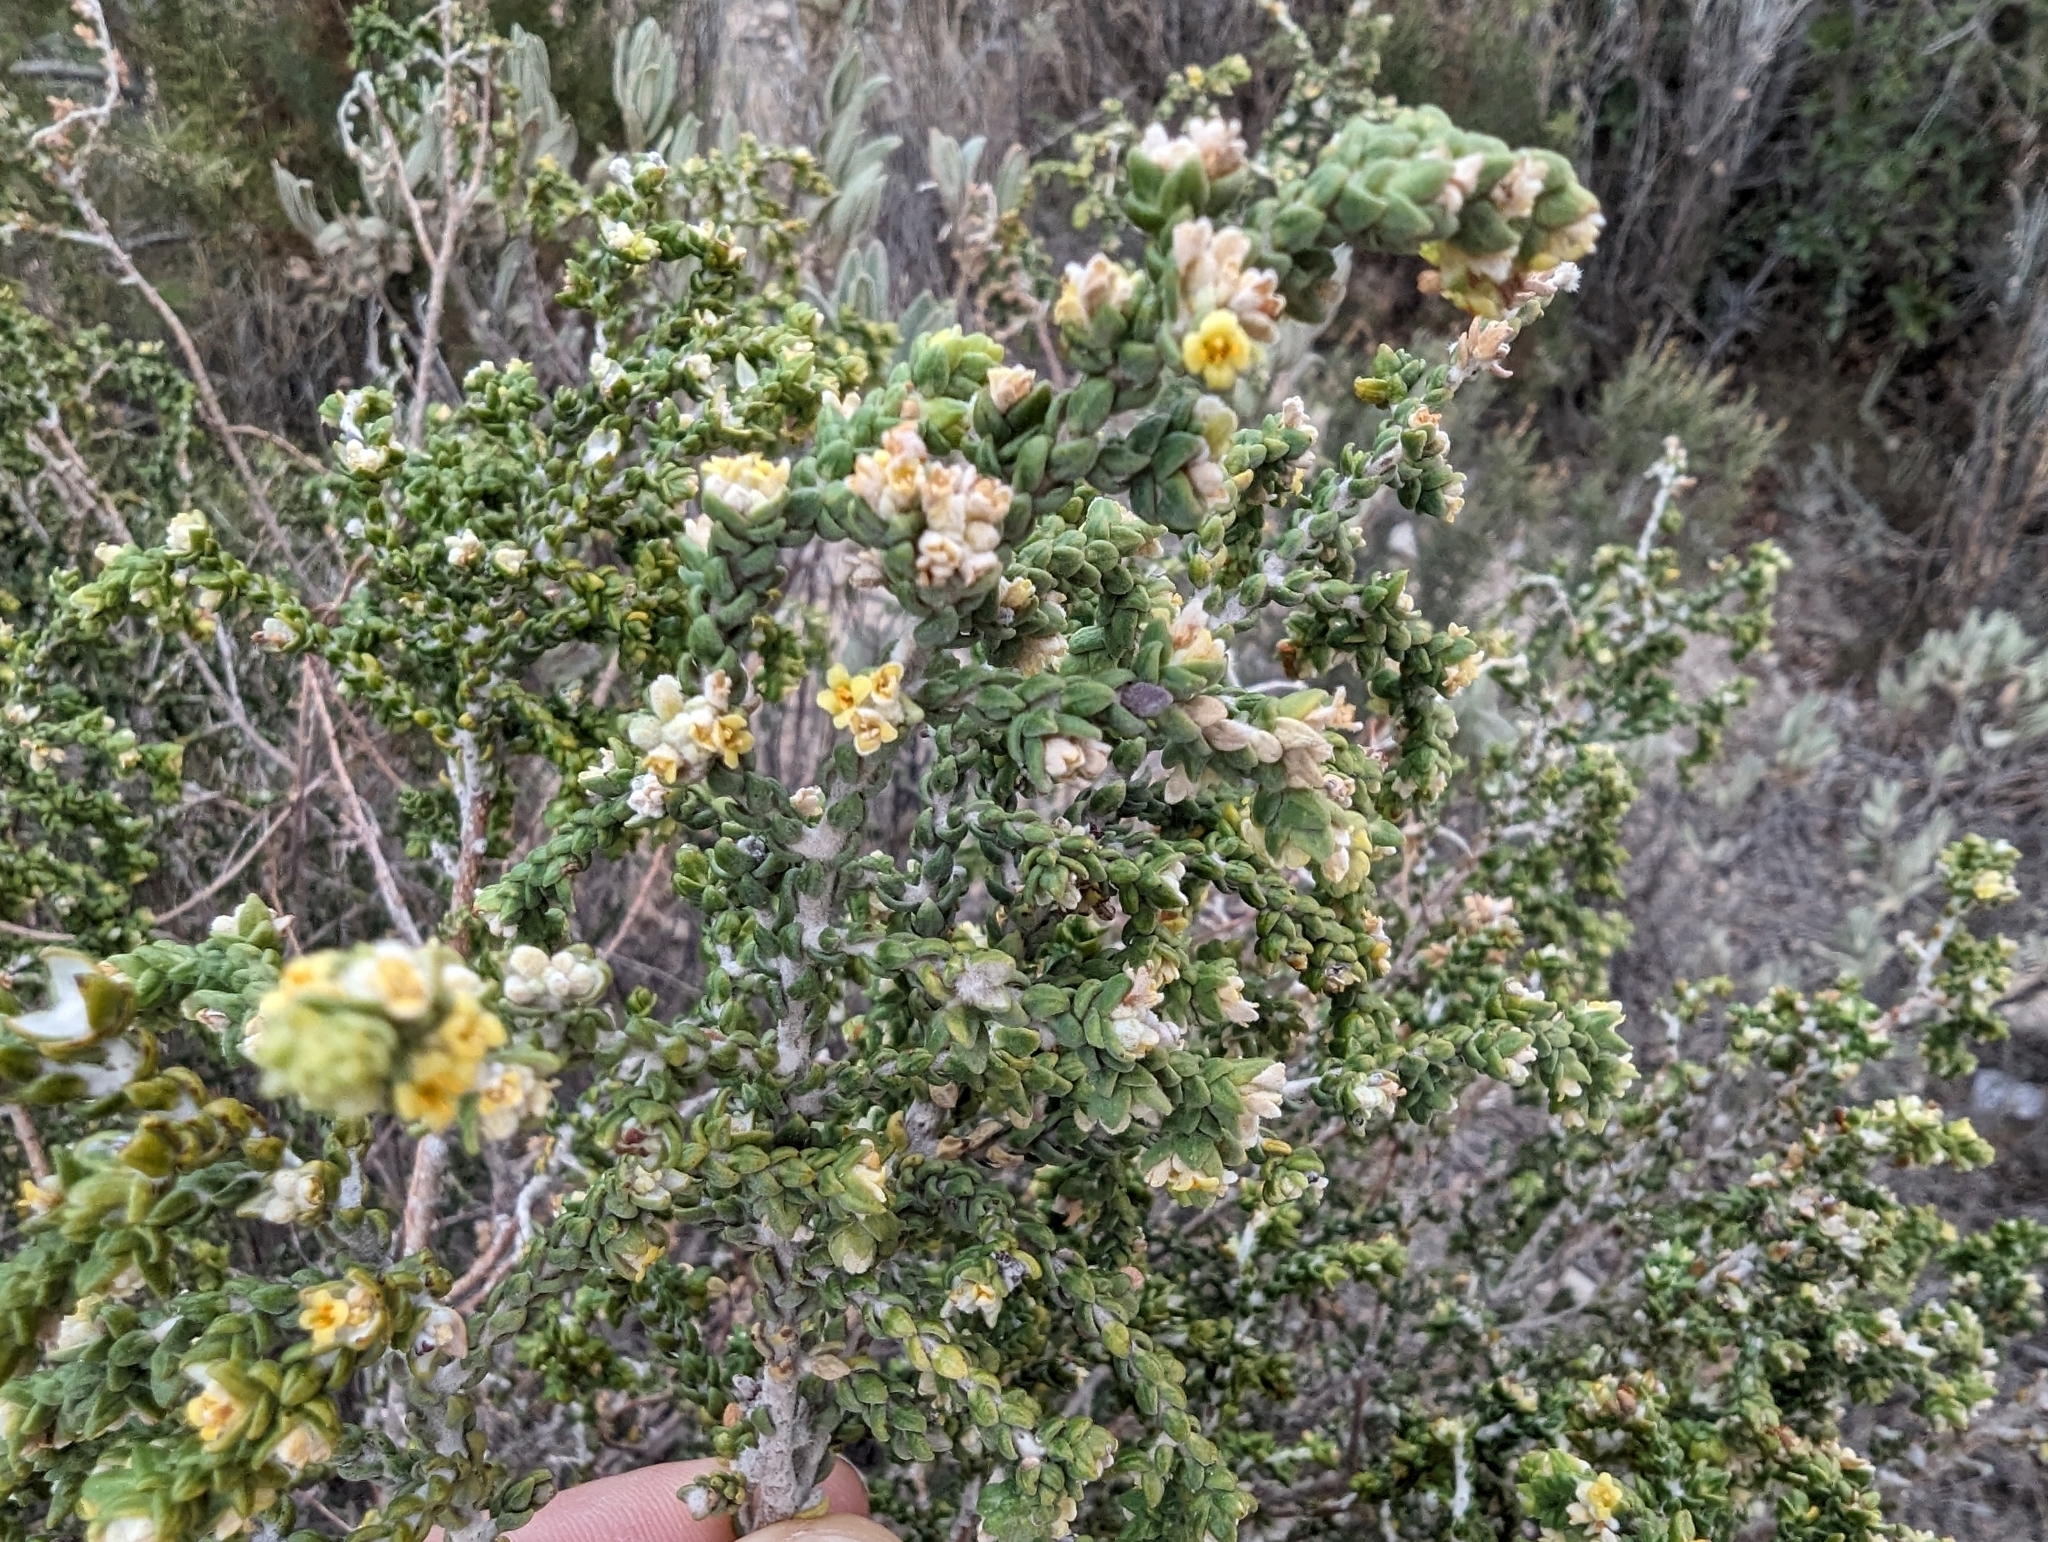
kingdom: Plantae
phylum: Tracheophyta
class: Magnoliopsida
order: Malvales
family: Thymelaeaceae
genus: Thymelaea
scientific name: Thymelaea hirsuta
